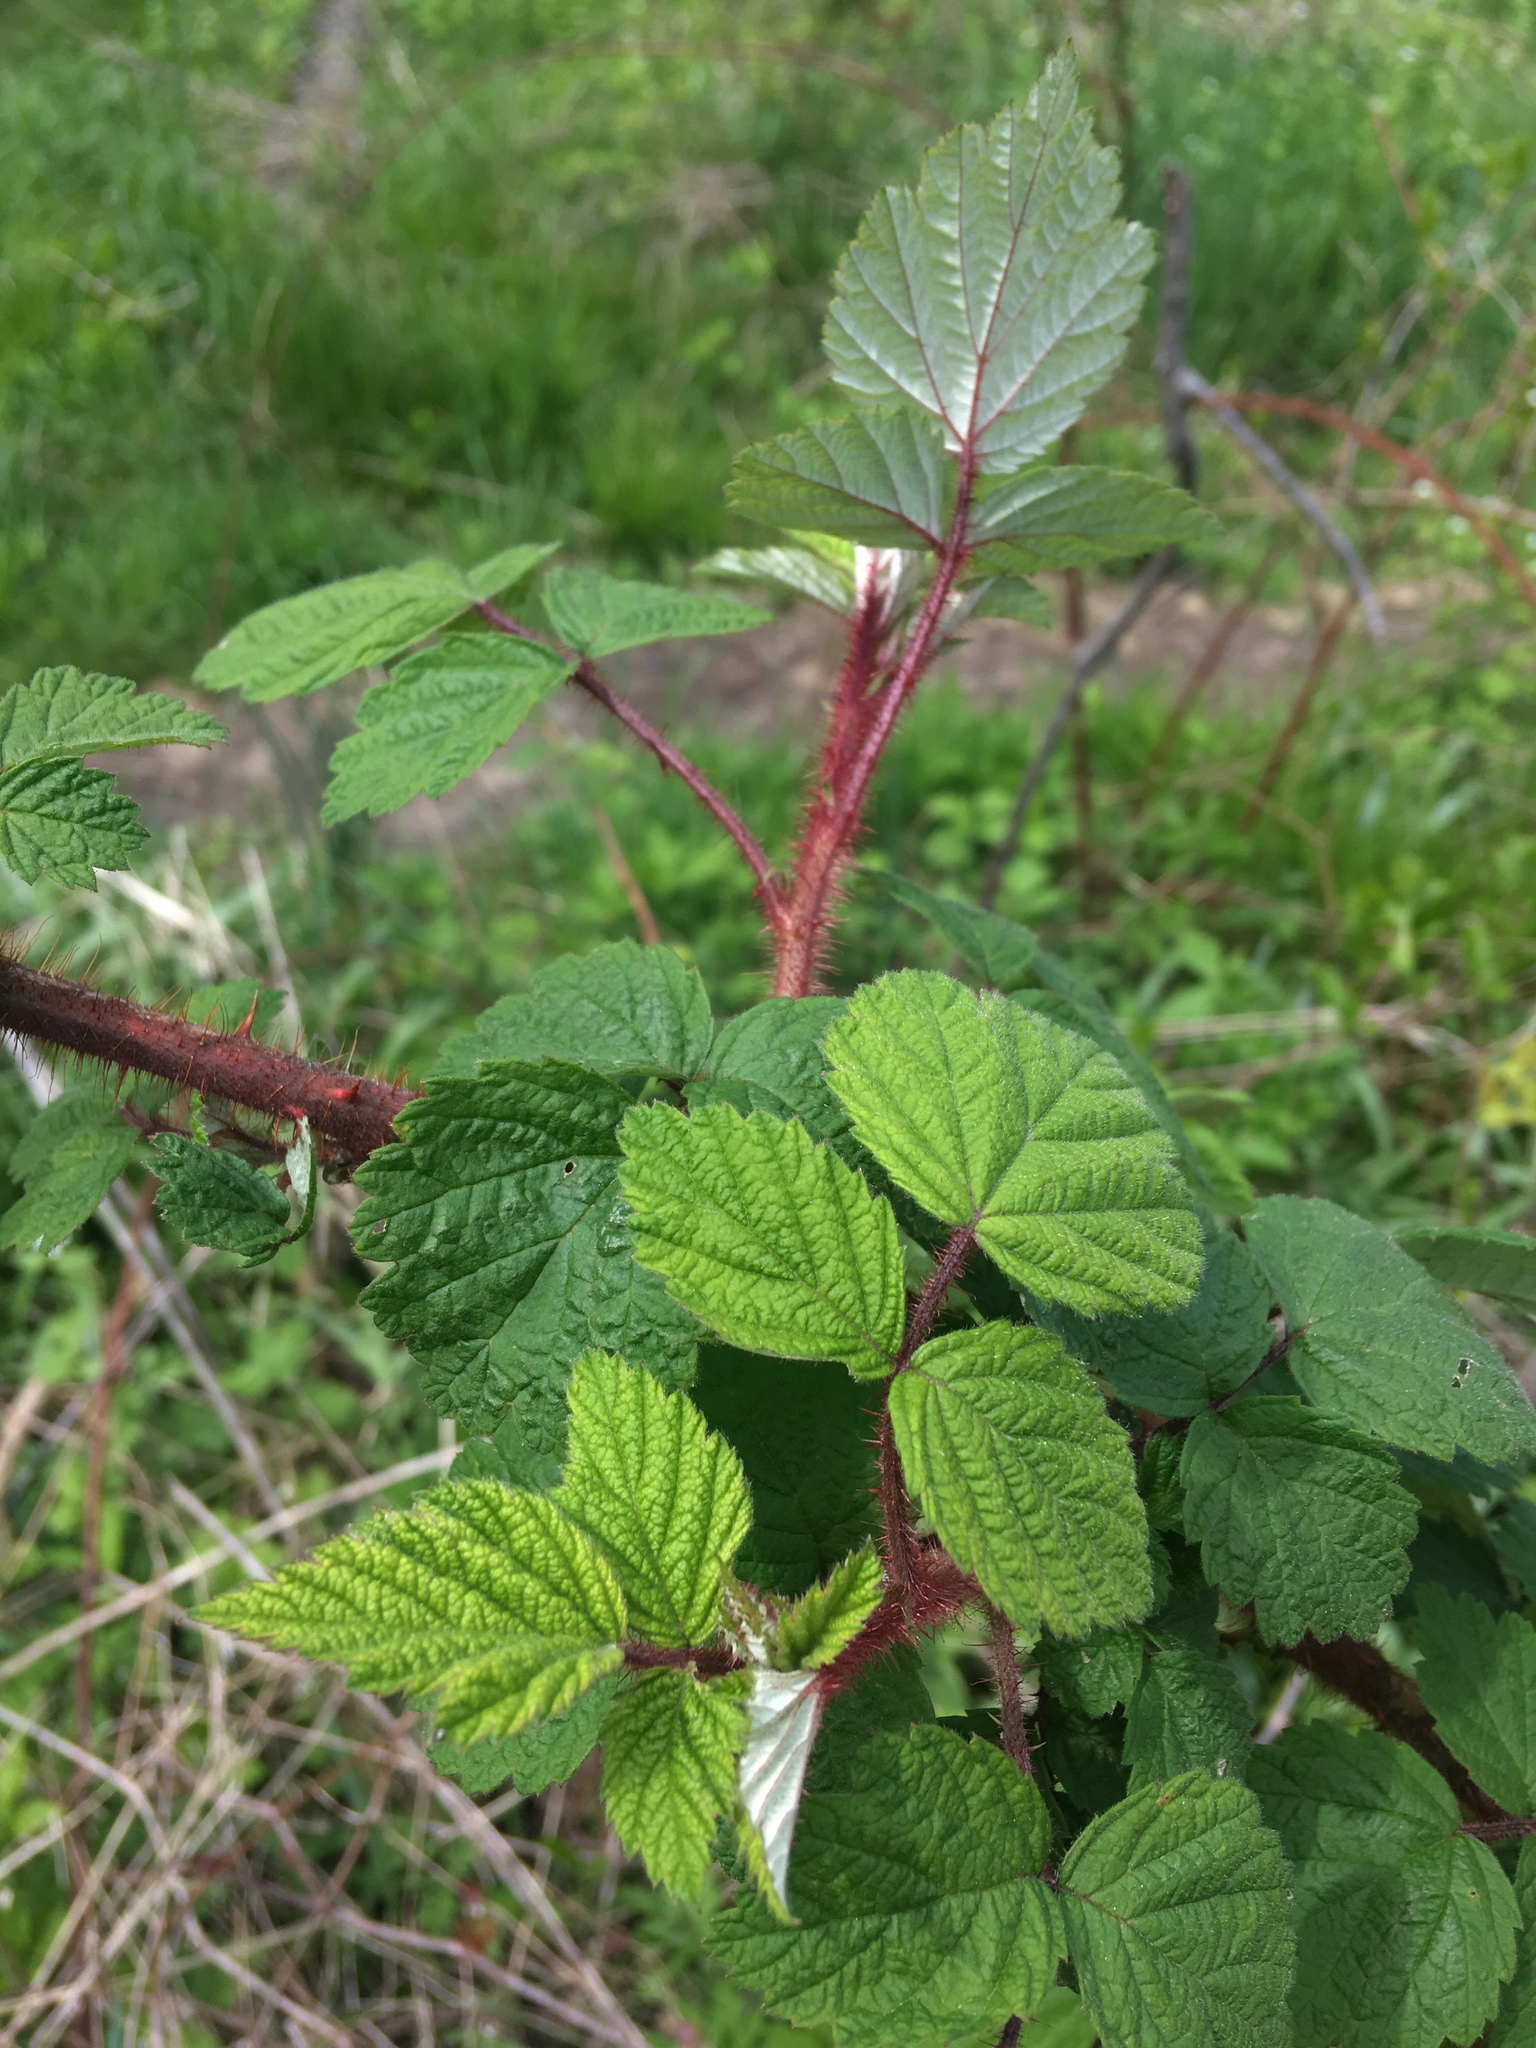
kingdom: Plantae
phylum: Tracheophyta
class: Magnoliopsida
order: Rosales
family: Rosaceae
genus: Rubus
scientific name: Rubus phoenicolasius
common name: Japanese wineberry
